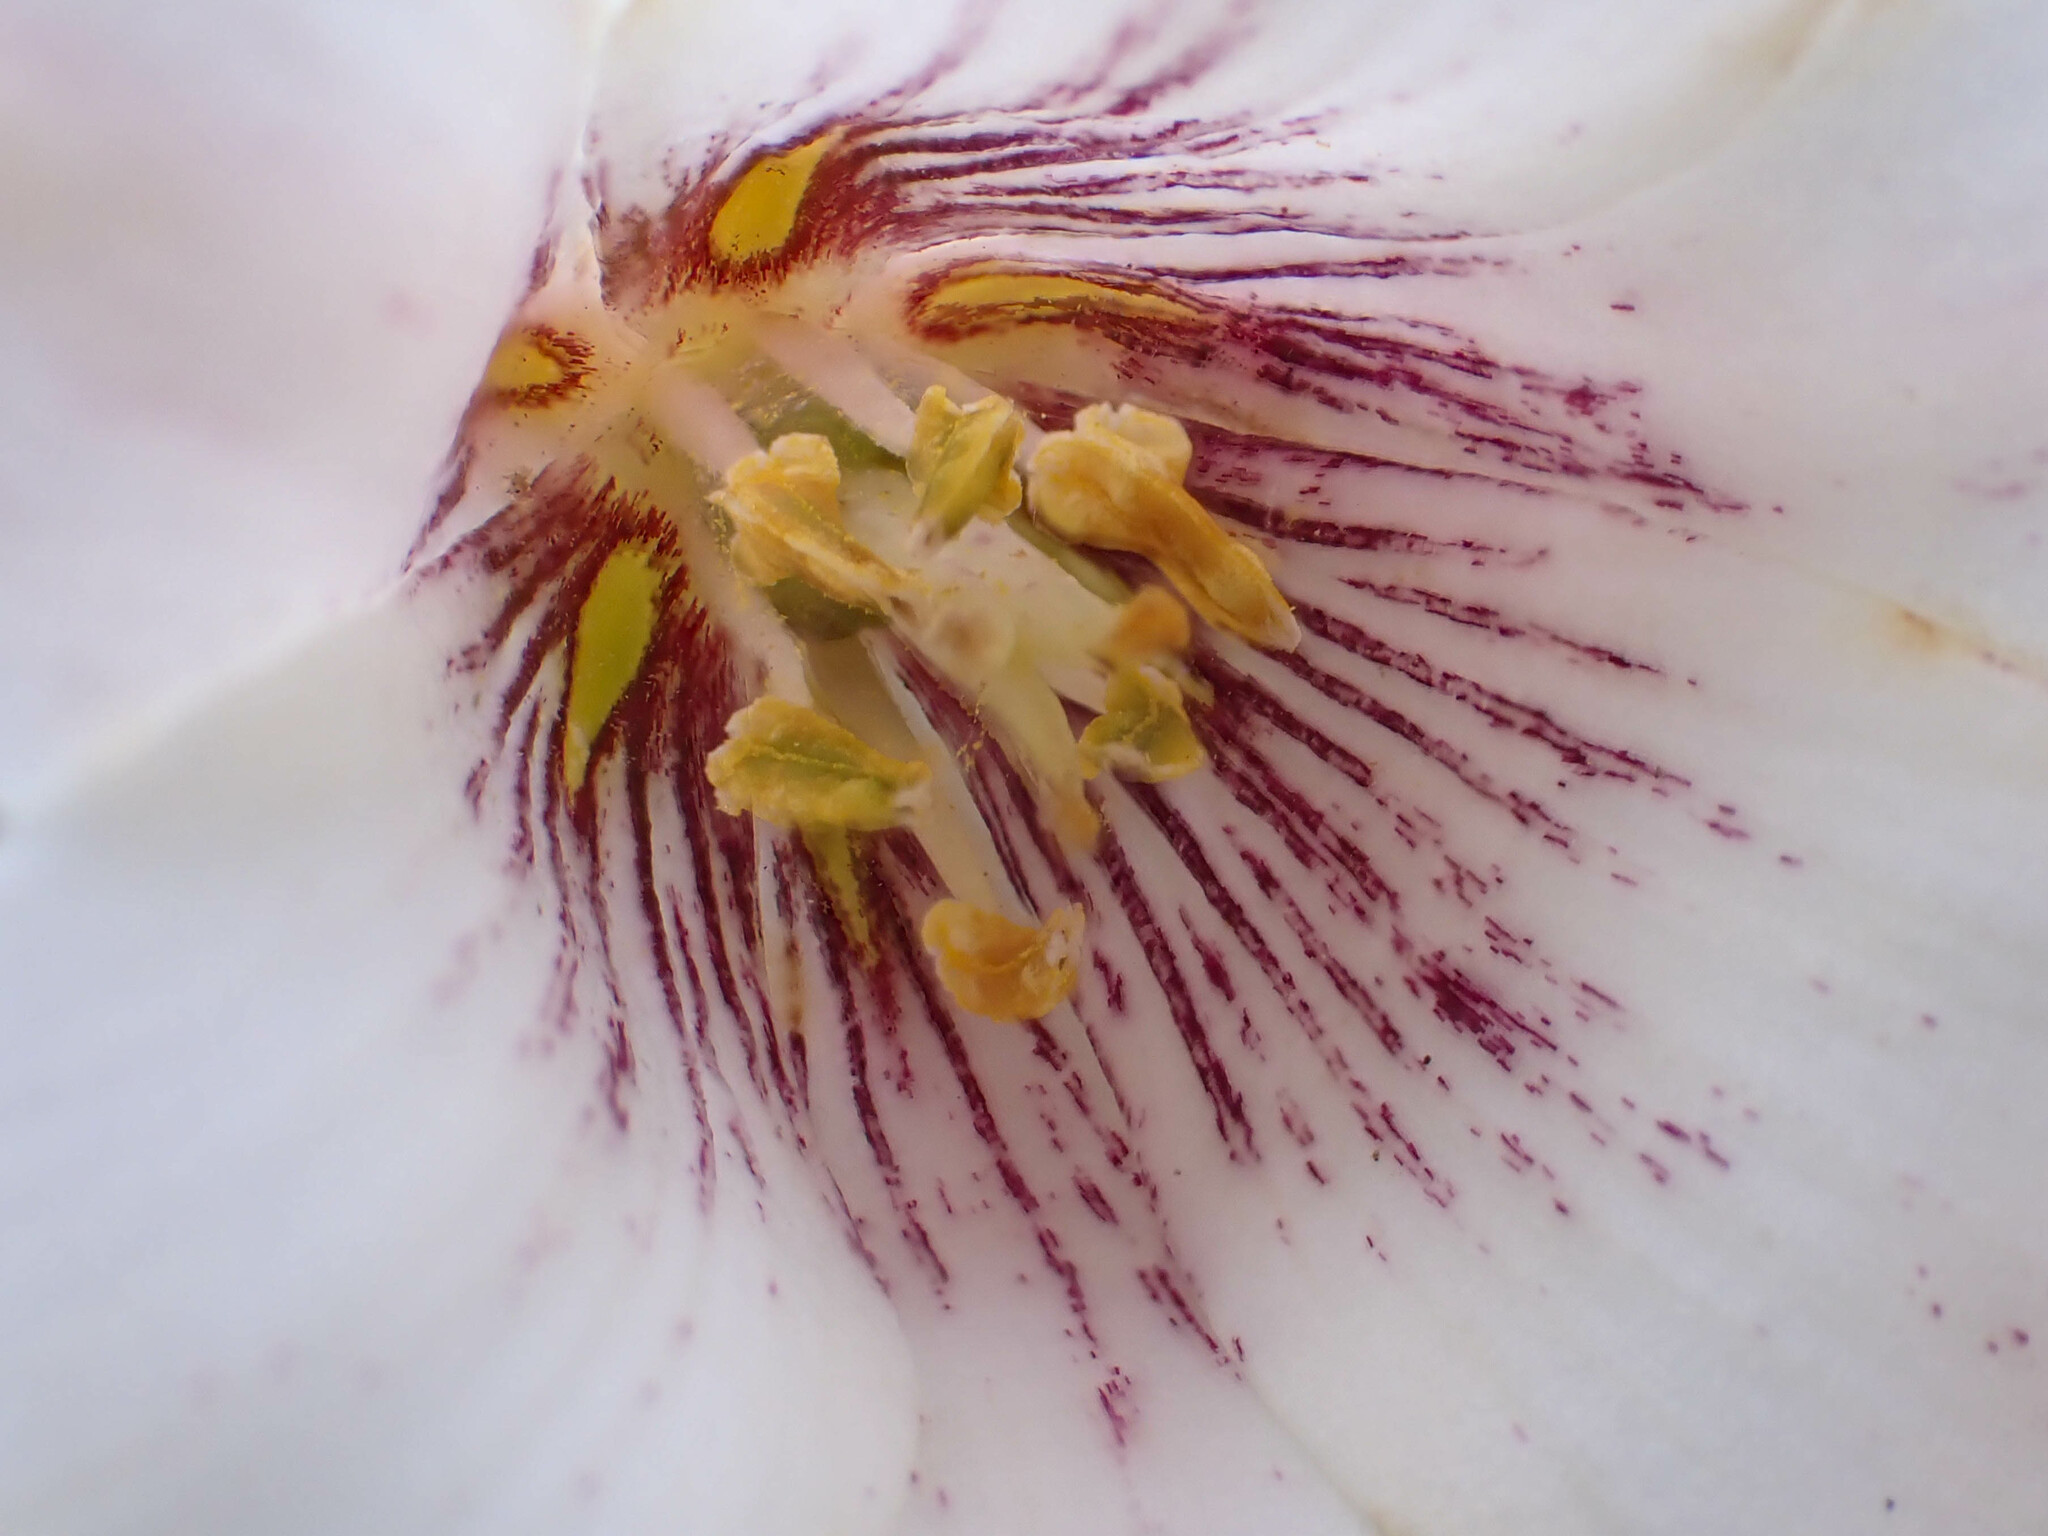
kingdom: Plantae
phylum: Tracheophyta
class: Liliopsida
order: Liliales
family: Liliaceae
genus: Fritillaria
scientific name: Fritillaria striata
